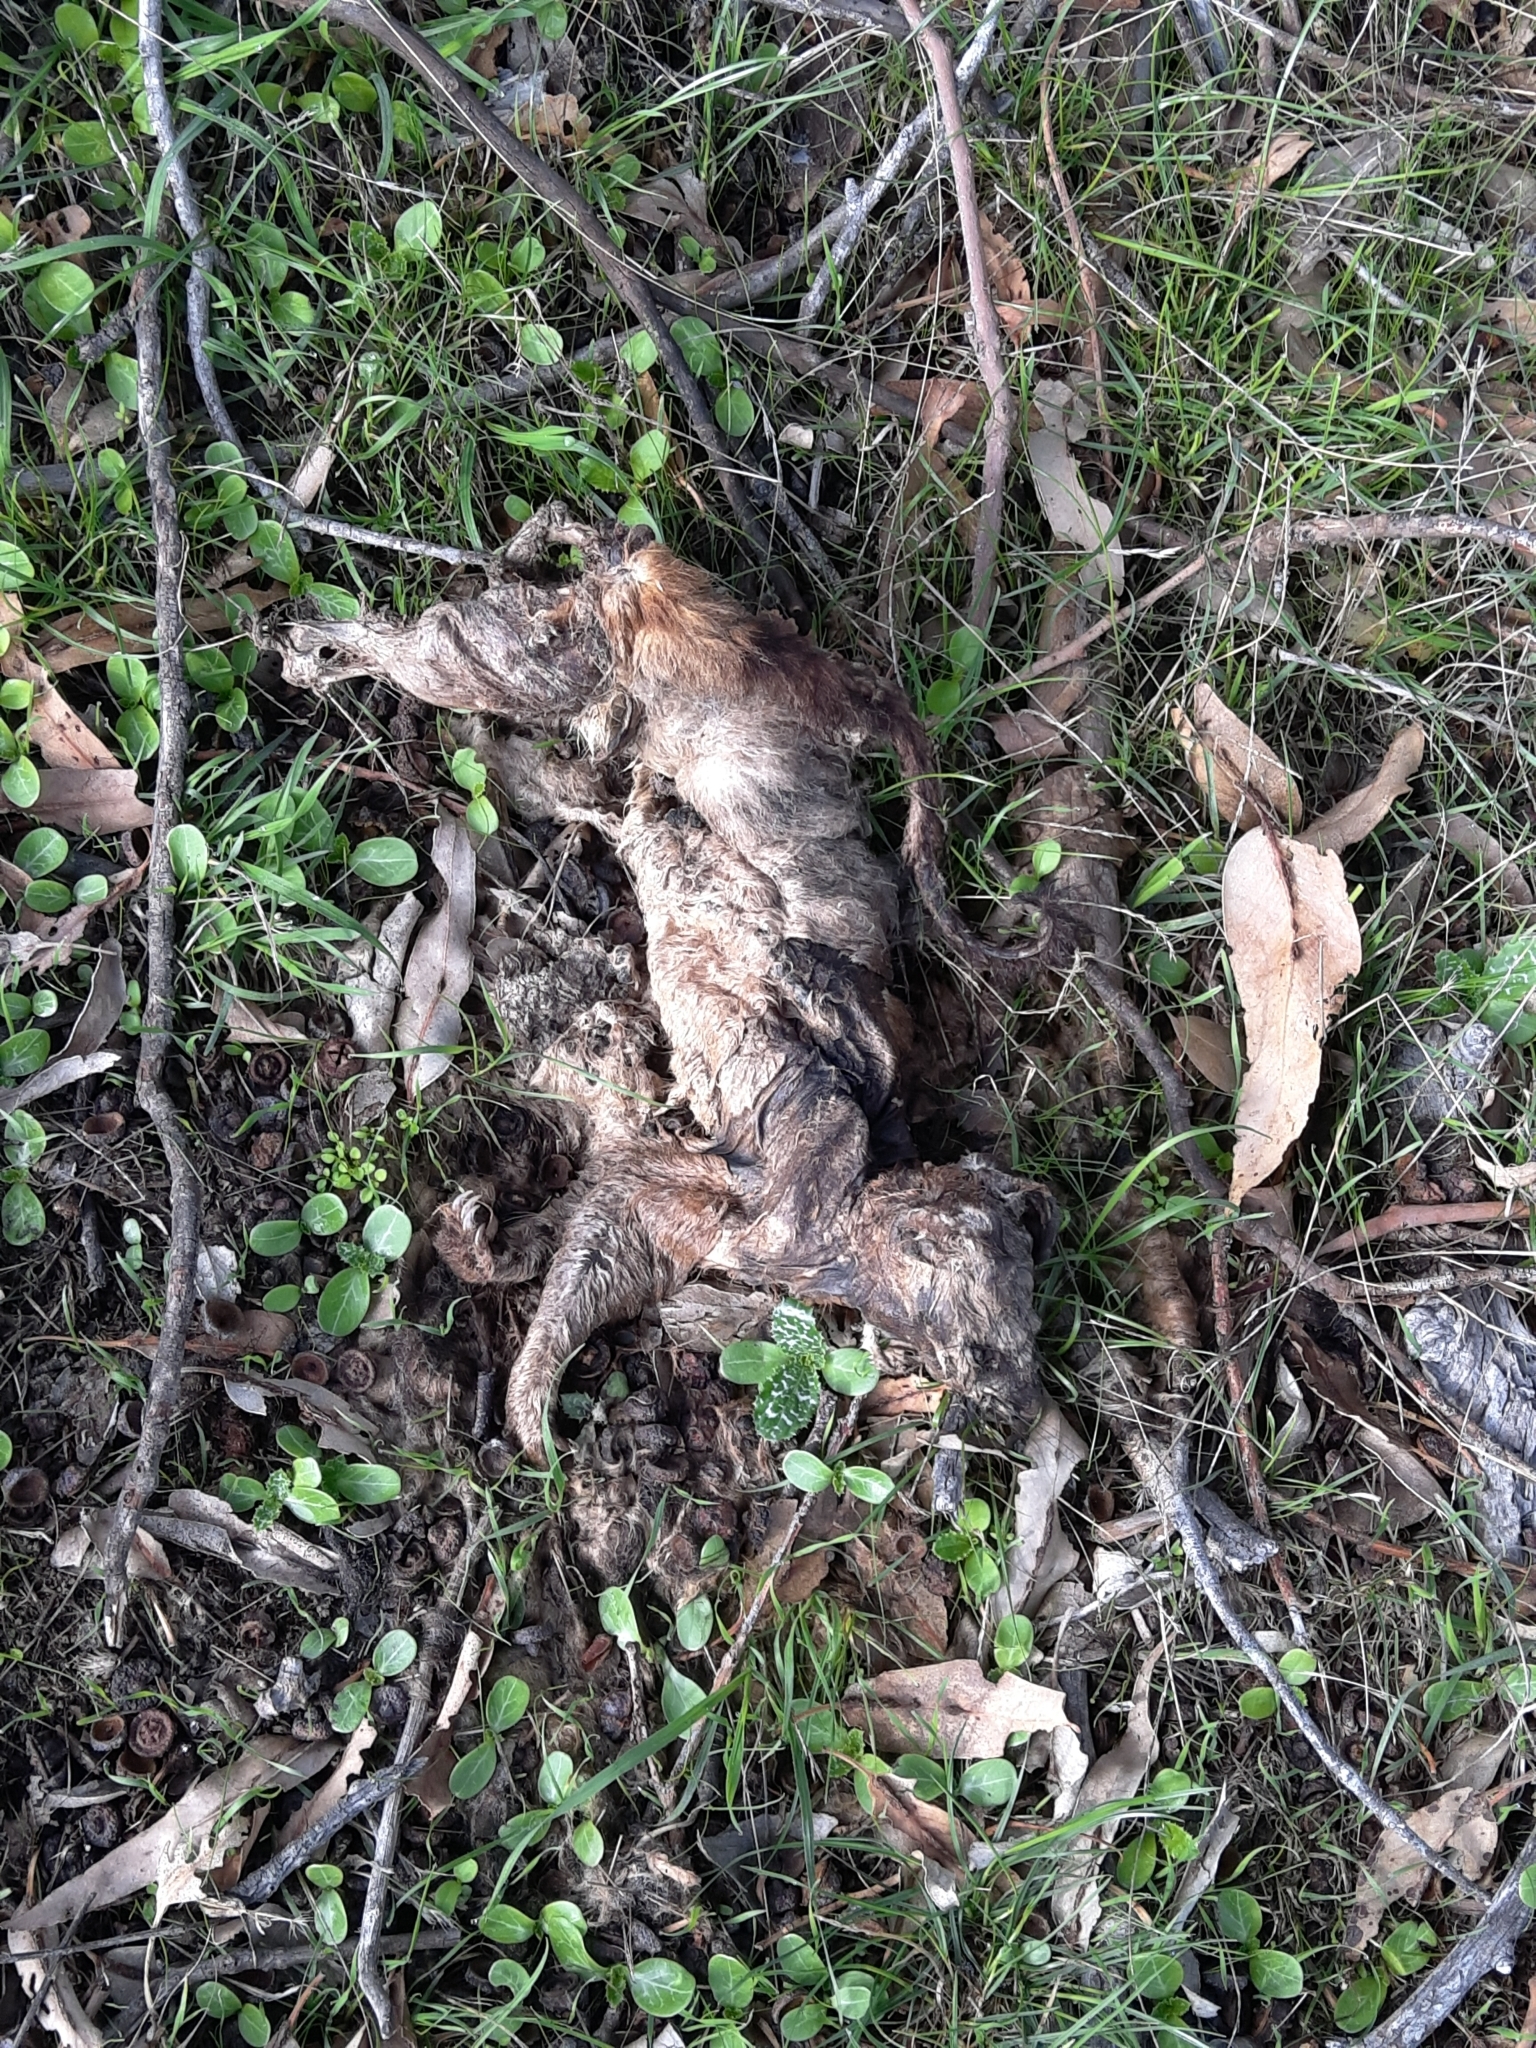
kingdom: Animalia
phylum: Chordata
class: Mammalia
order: Diprotodontia
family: Phalangeridae
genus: Trichosurus
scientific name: Trichosurus vulpecula
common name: Common brushtail
